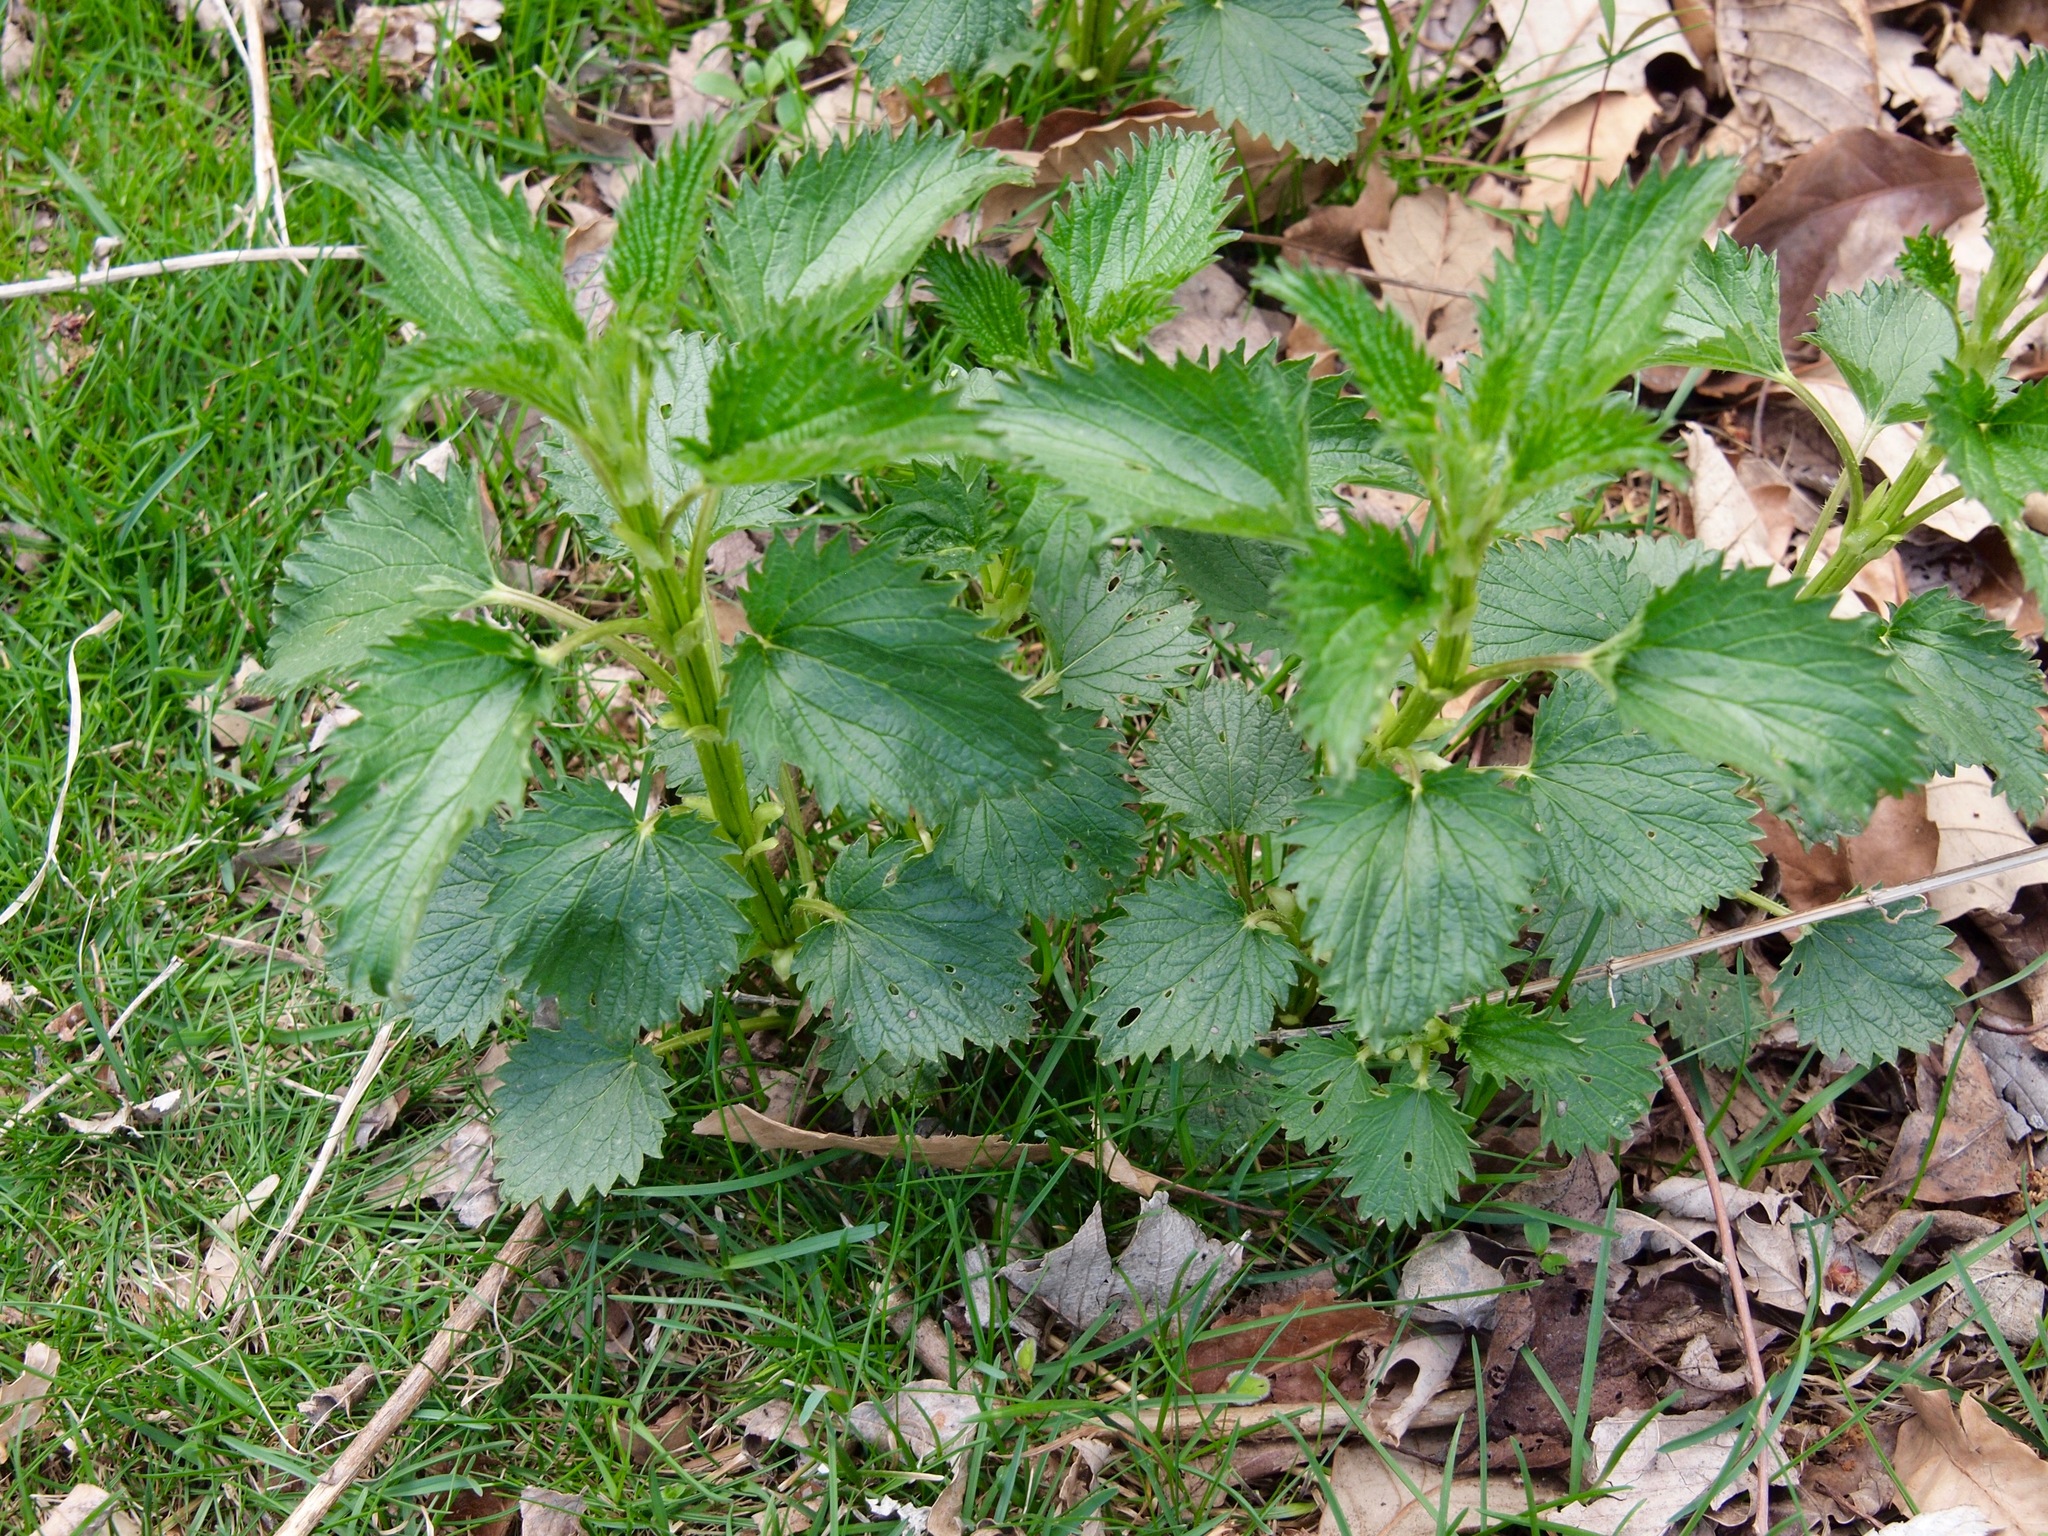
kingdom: Plantae
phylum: Tracheophyta
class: Magnoliopsida
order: Rosales
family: Urticaceae
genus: Urtica
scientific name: Urtica dioica
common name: Common nettle
